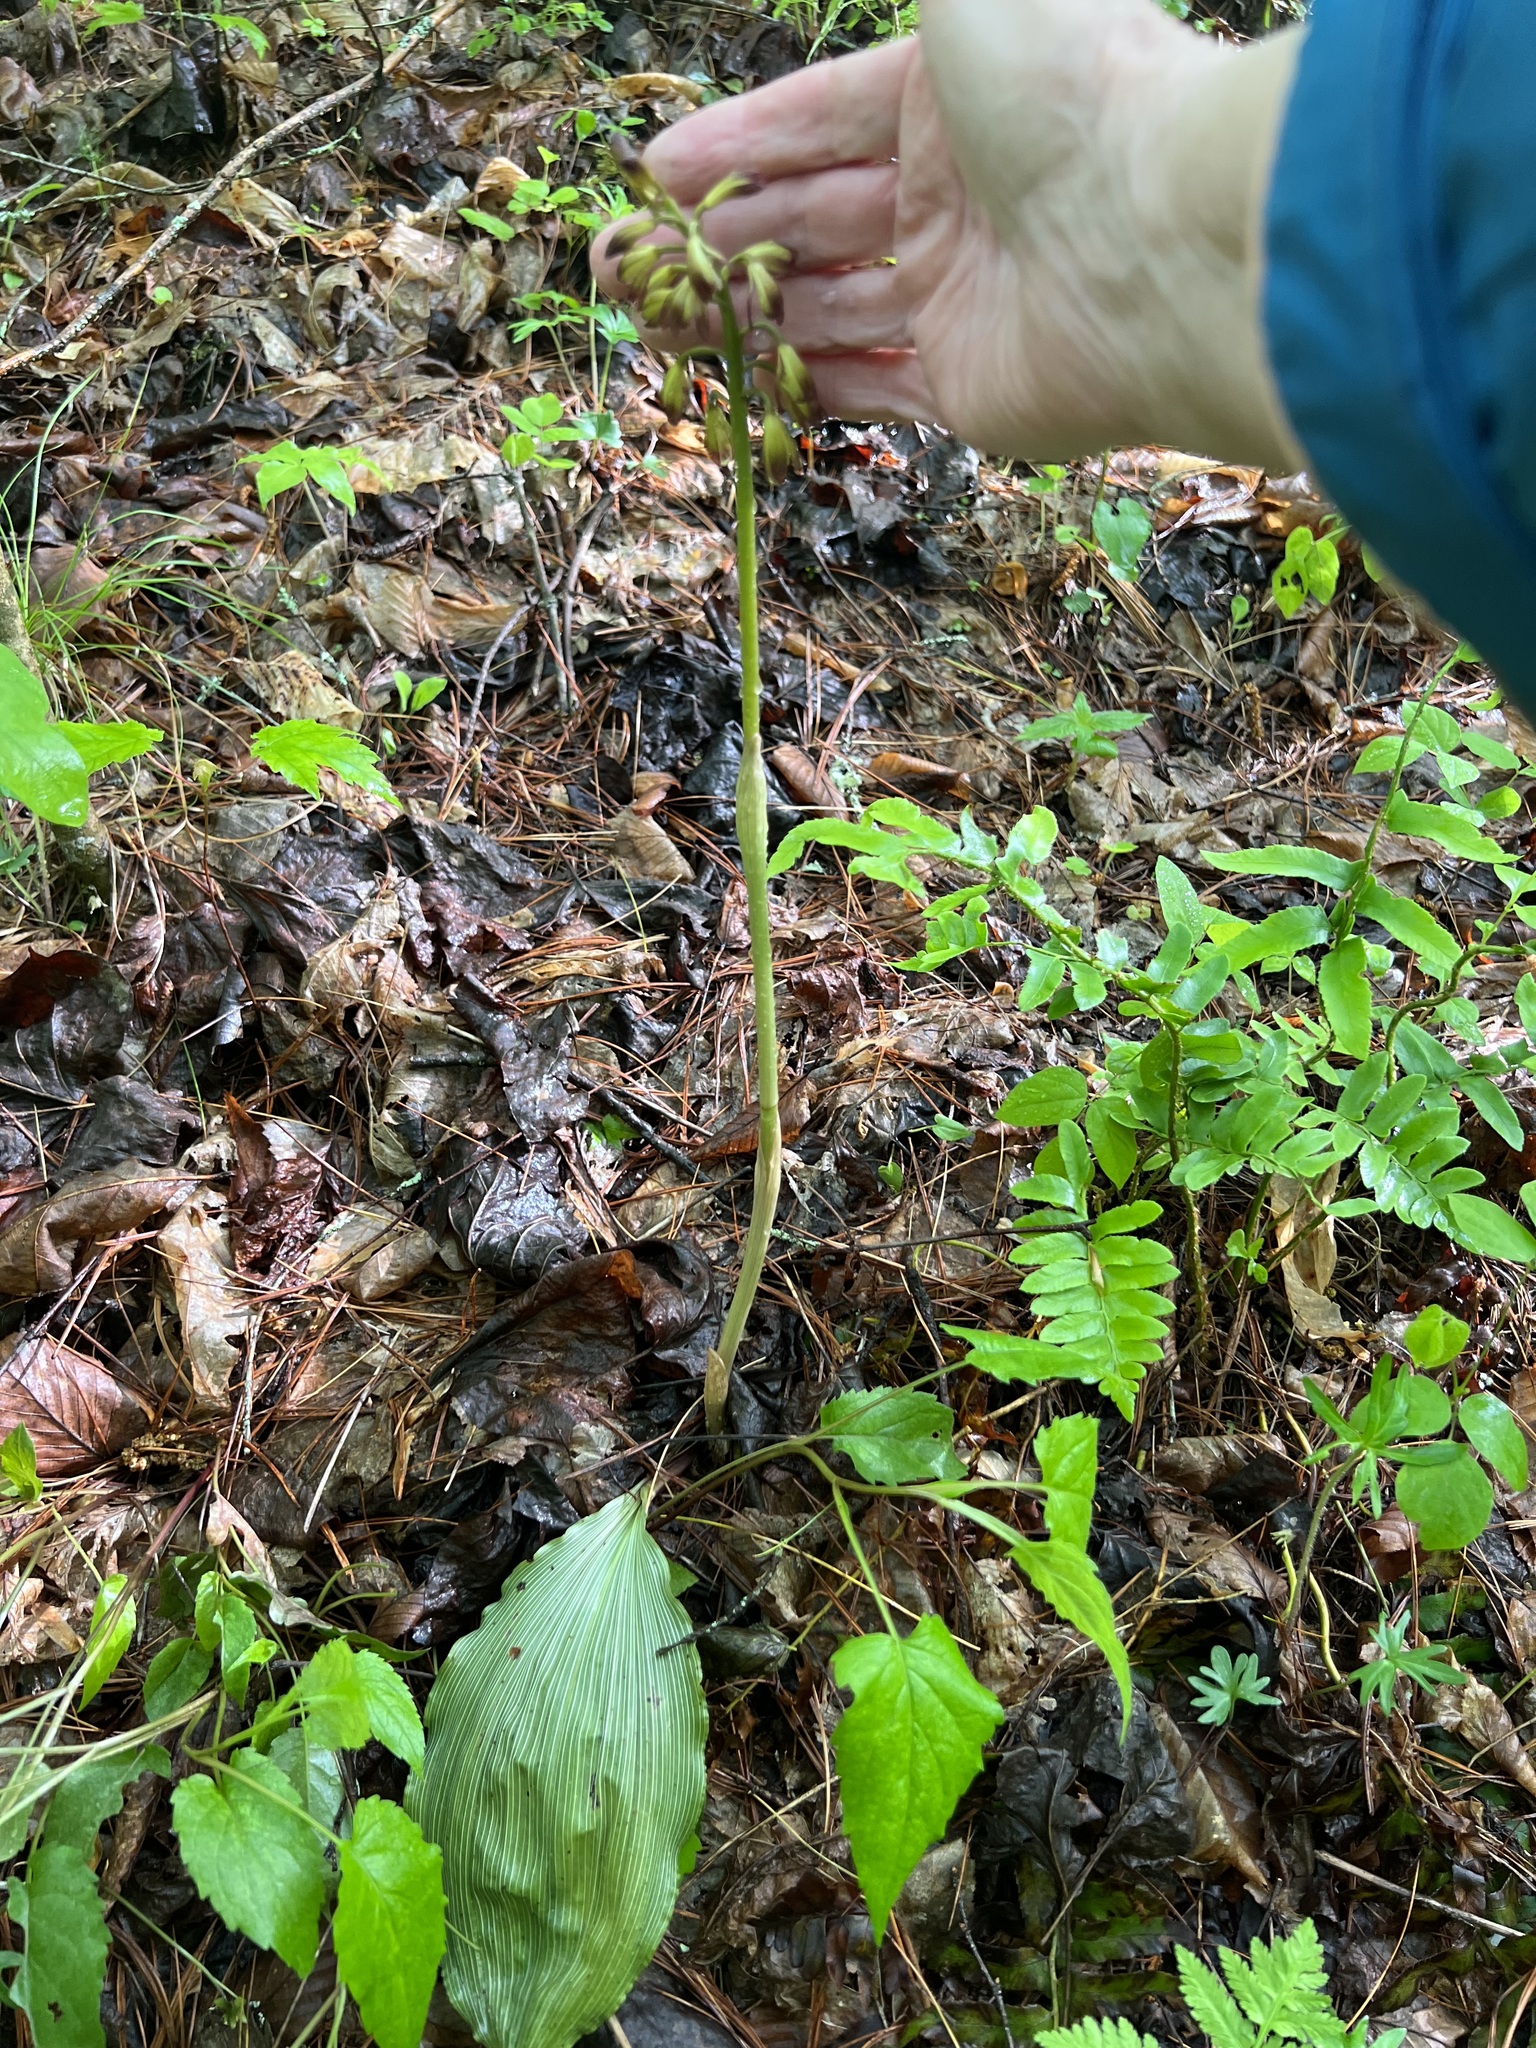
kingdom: Plantae
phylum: Tracheophyta
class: Liliopsida
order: Asparagales
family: Orchidaceae
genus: Aplectrum
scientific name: Aplectrum hyemale
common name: Adam-and-eve
